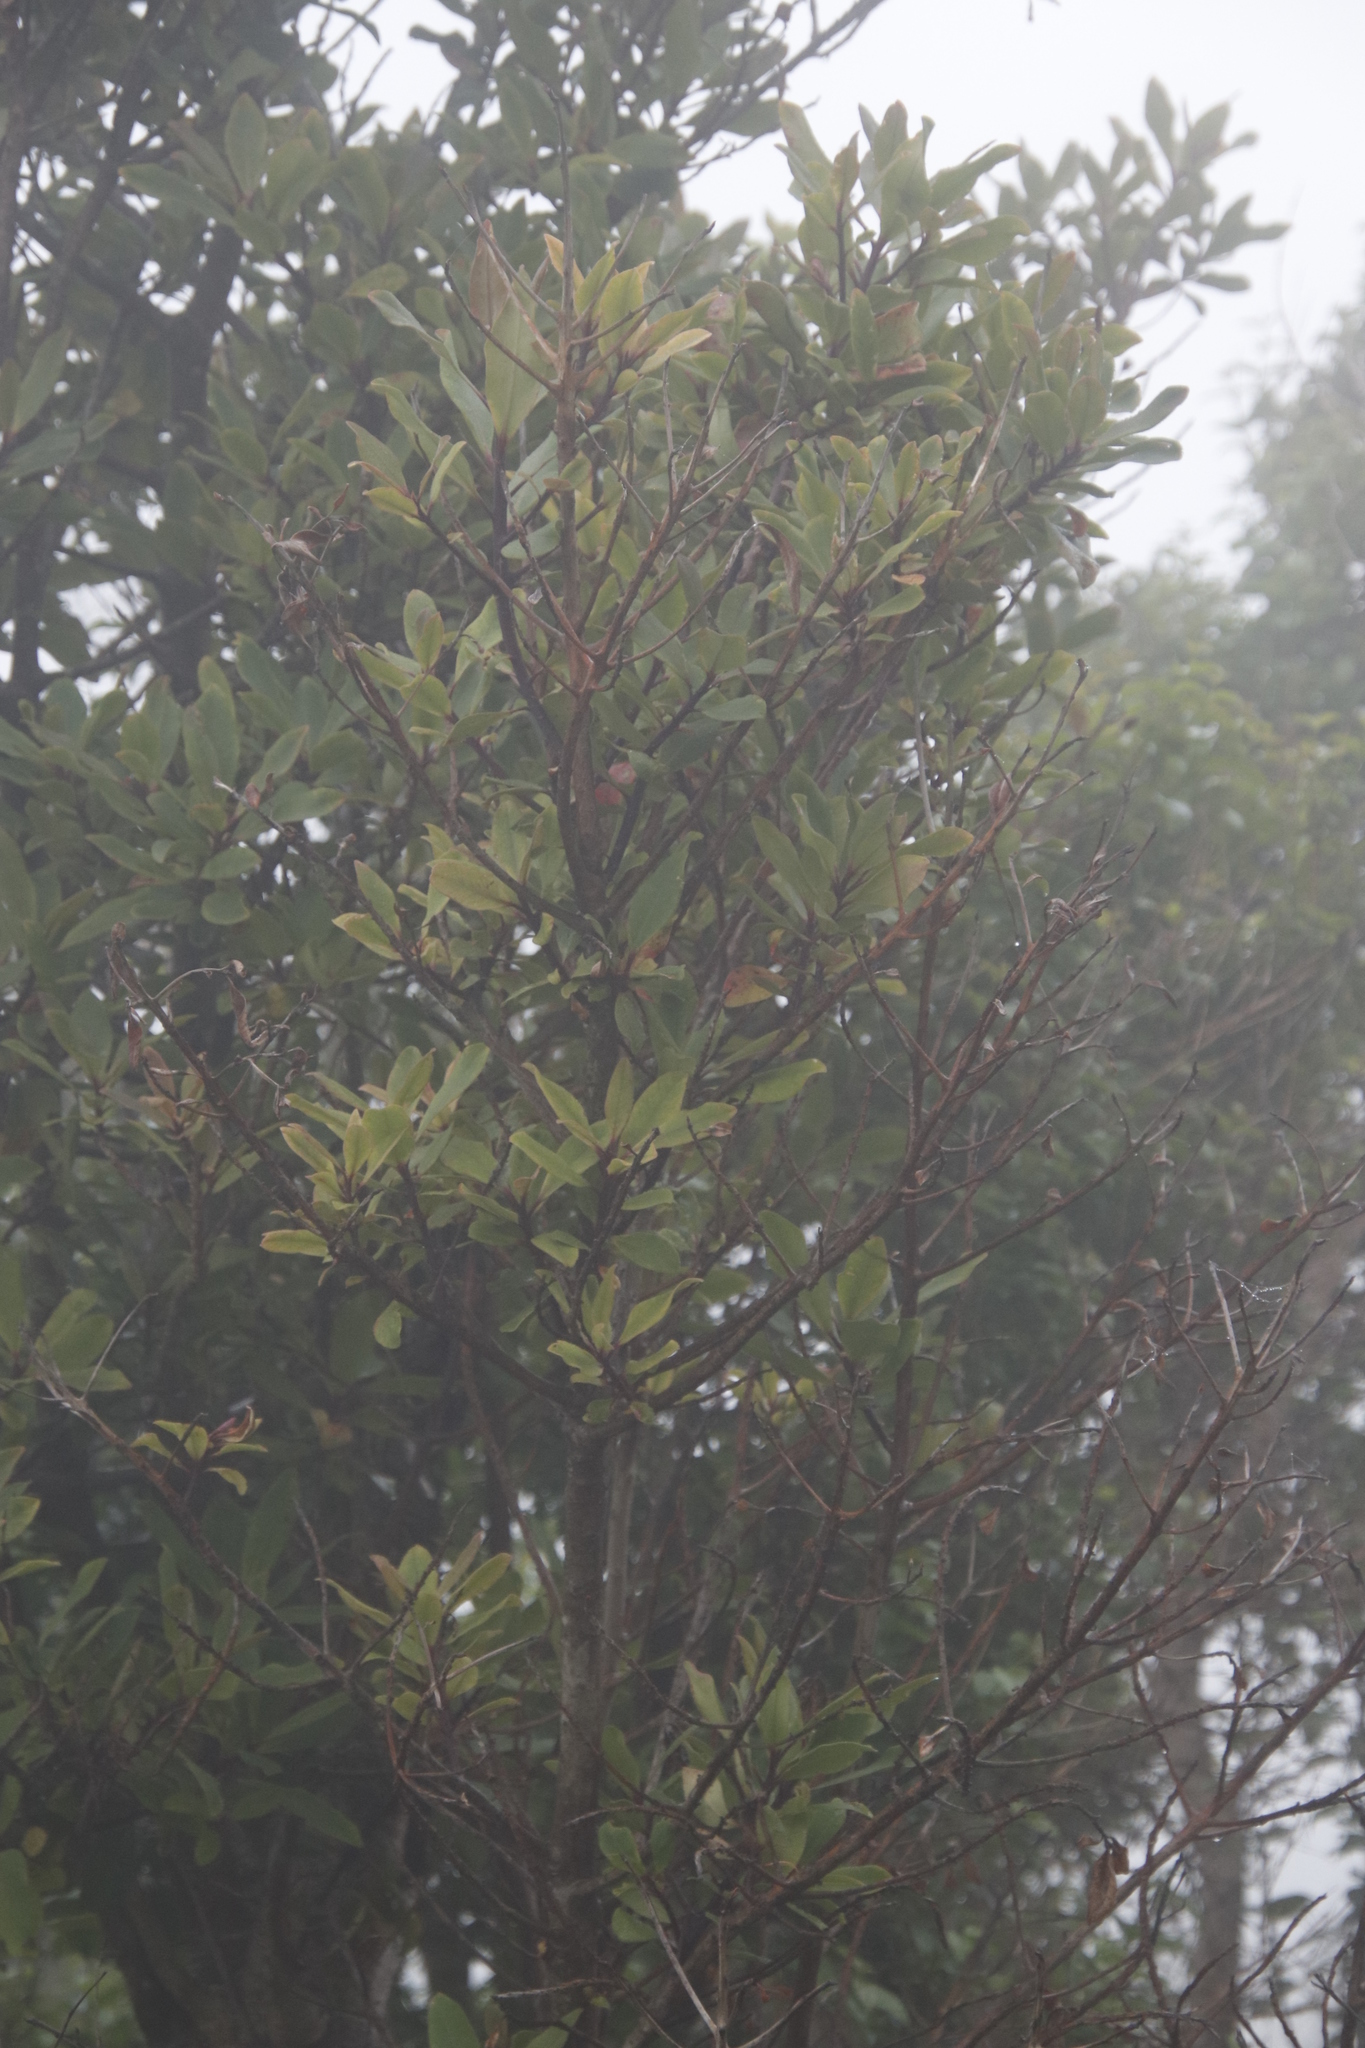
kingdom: Plantae
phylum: Tracheophyta
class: Magnoliopsida
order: Ericales
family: Primulaceae
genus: Myrsine
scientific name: Myrsine melanophloeos
